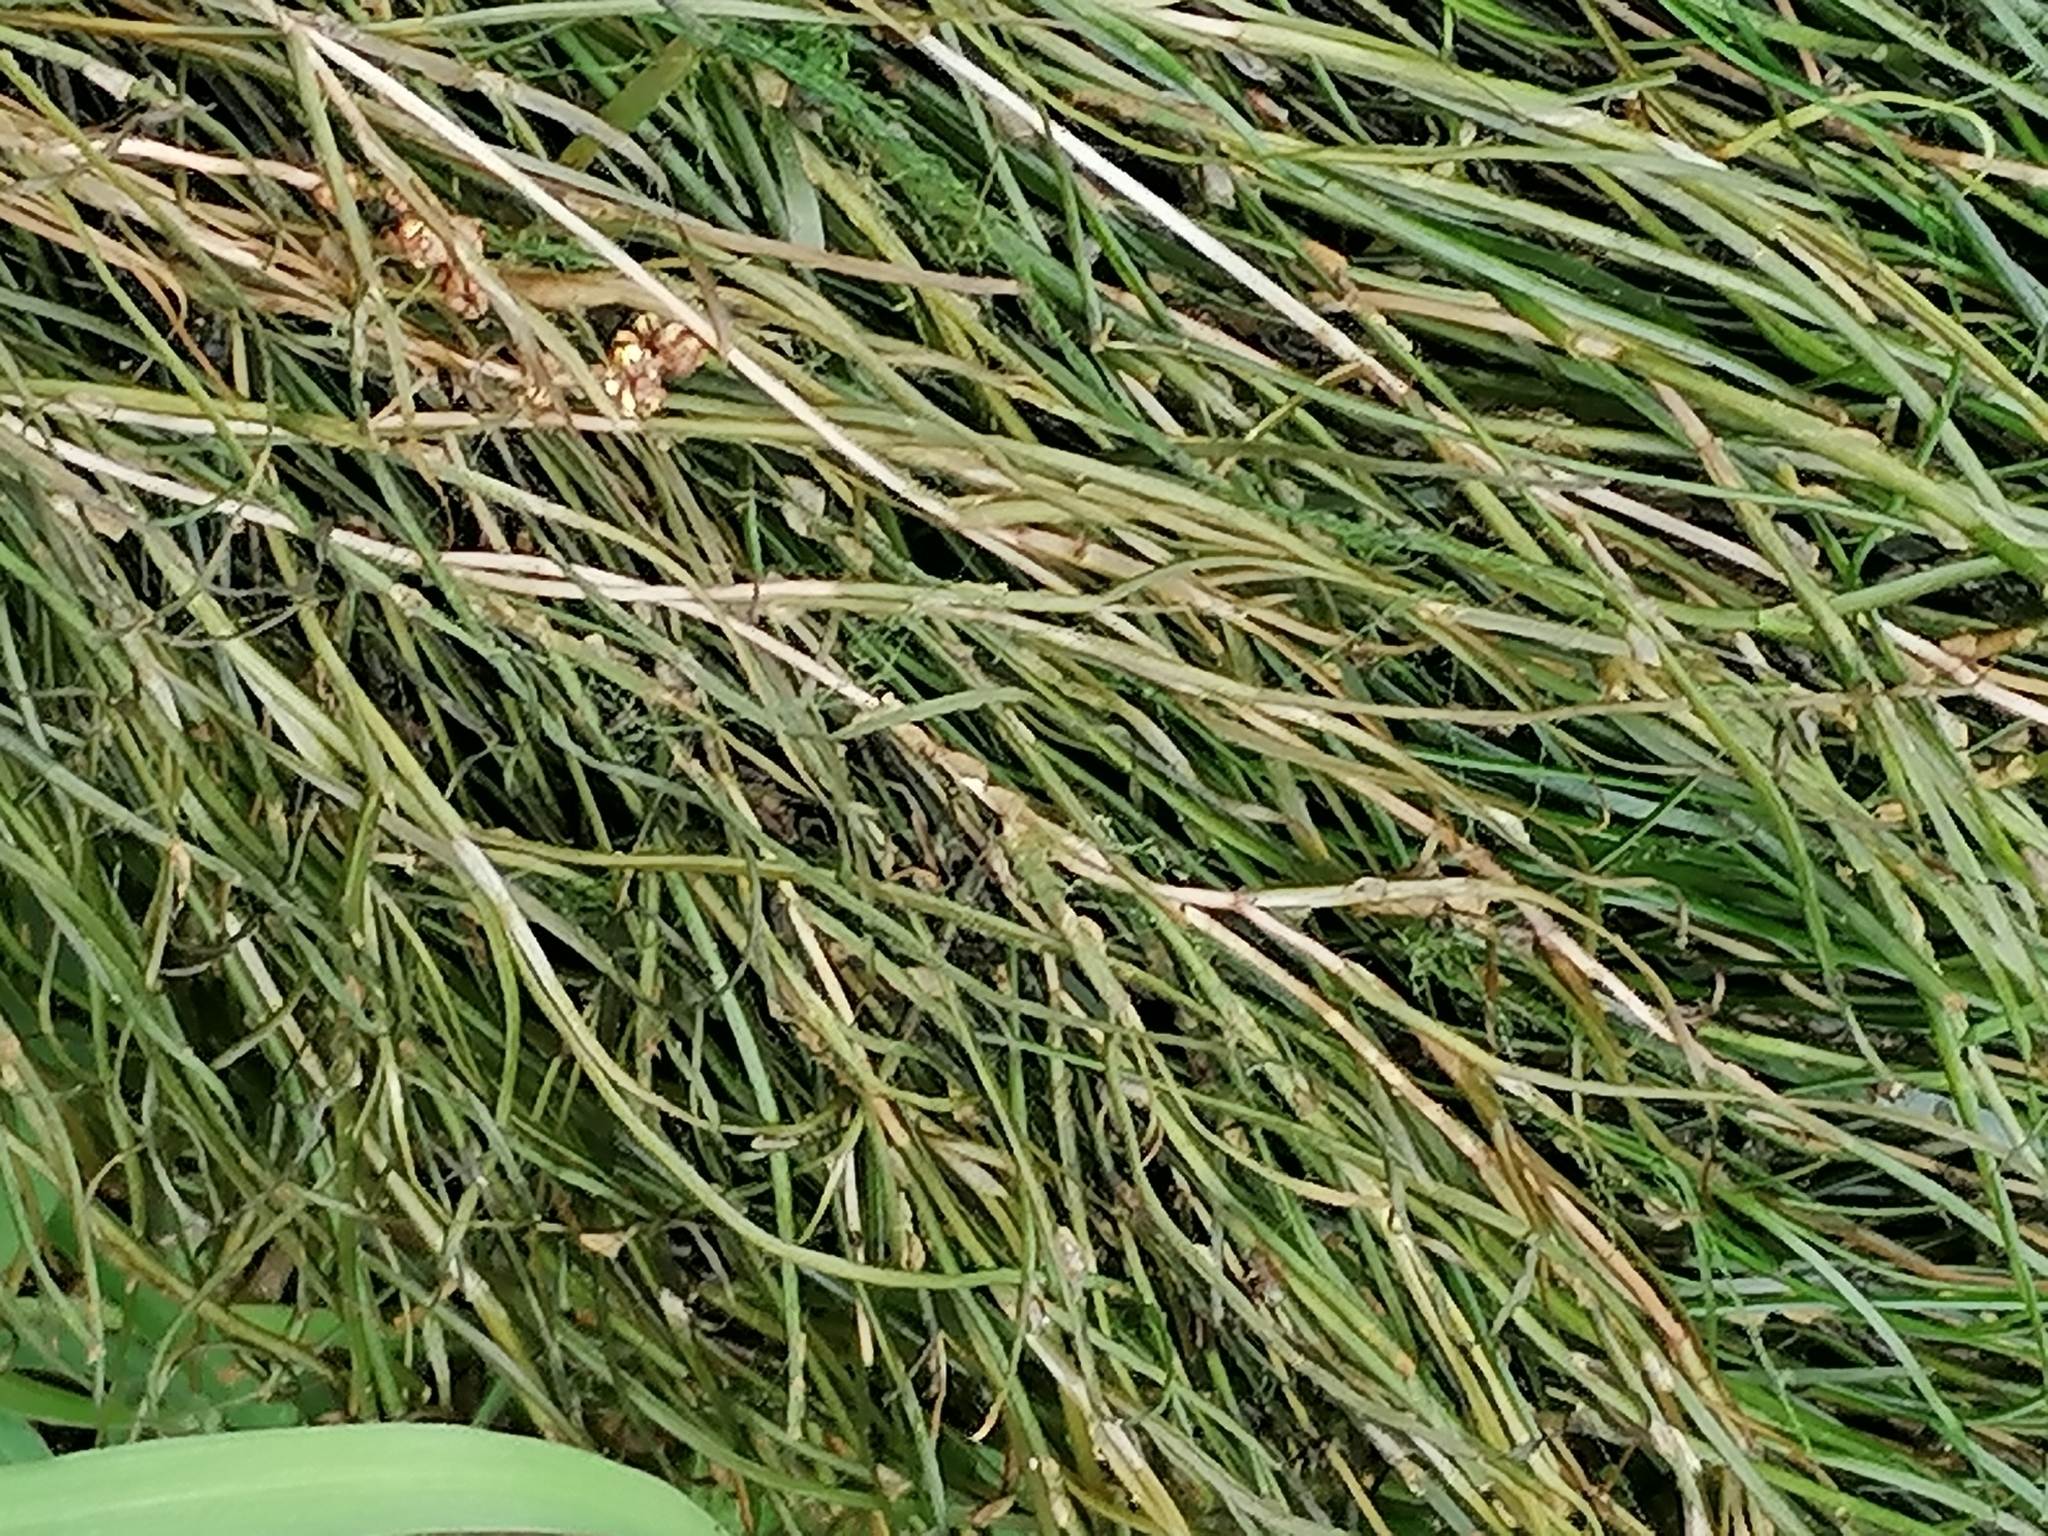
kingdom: Plantae
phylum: Tracheophyta
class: Liliopsida
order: Alismatales
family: Potamogetonaceae
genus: Stuckenia
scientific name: Stuckenia pectinata
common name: Sago pondweed
